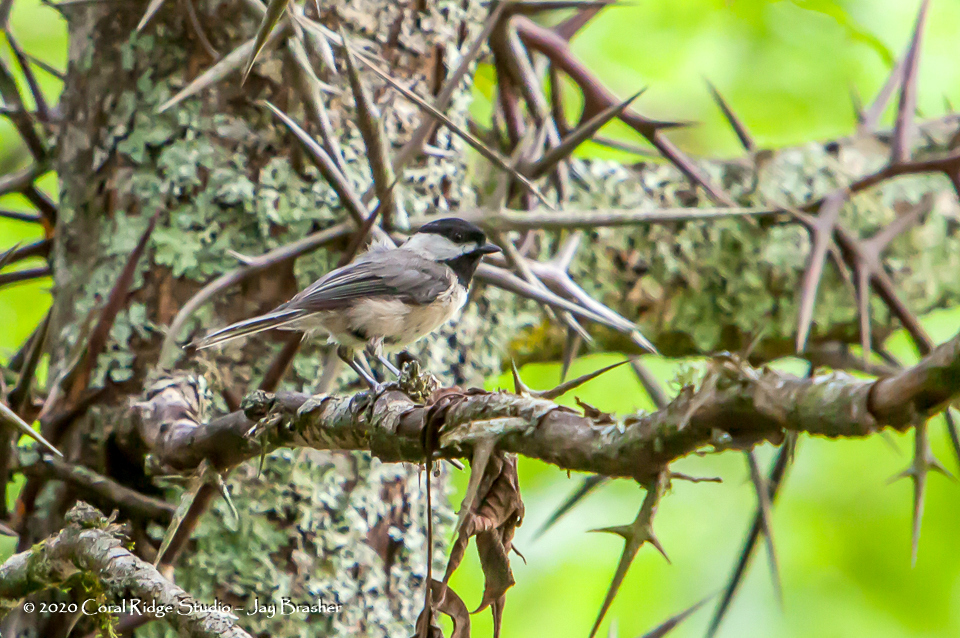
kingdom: Animalia
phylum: Chordata
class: Aves
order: Passeriformes
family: Paridae
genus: Poecile
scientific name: Poecile carolinensis
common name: Carolina chickadee
